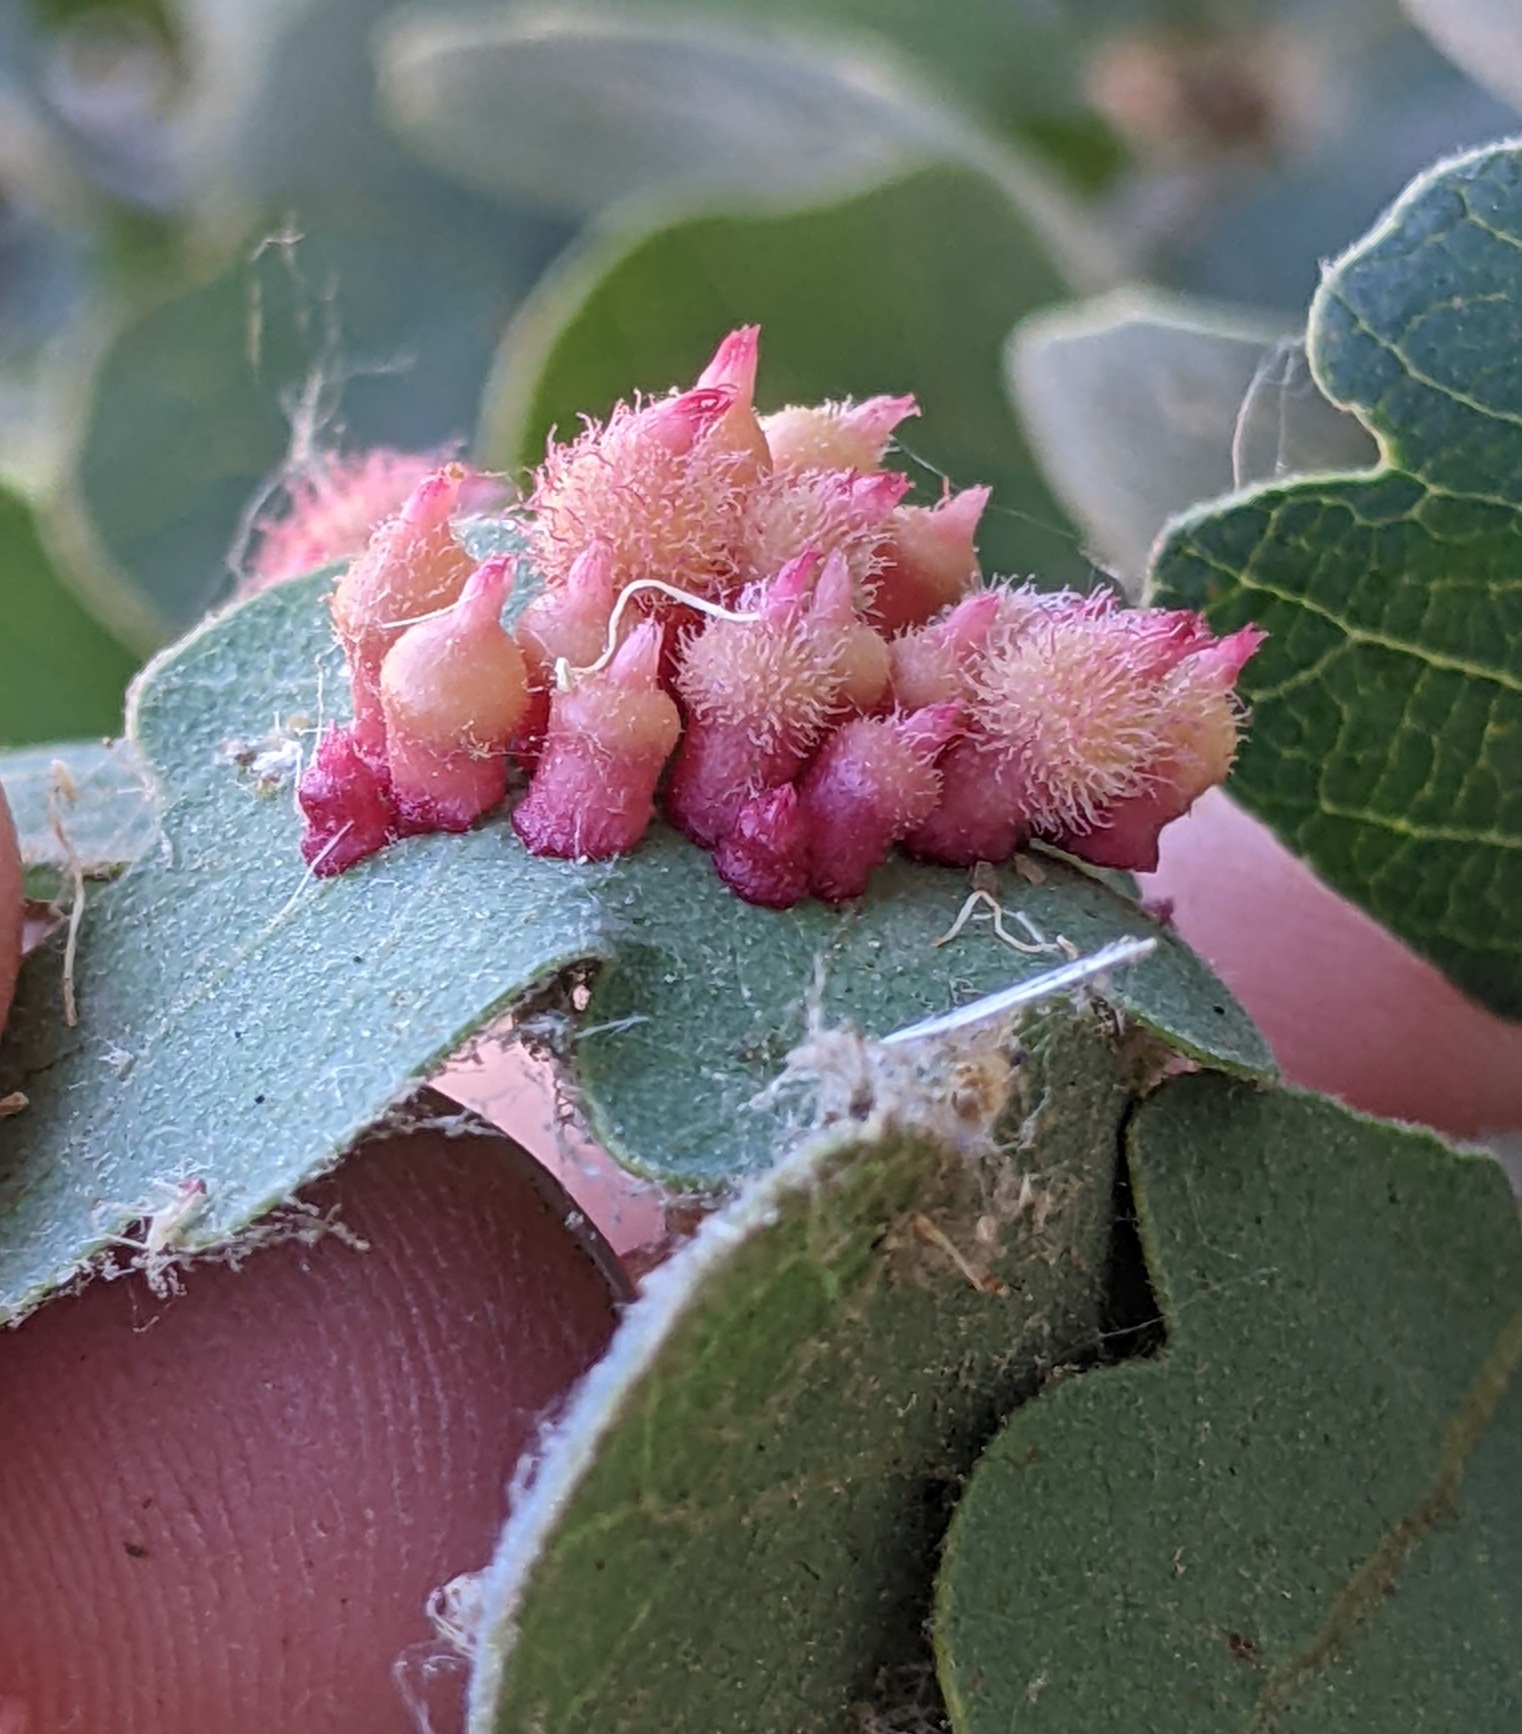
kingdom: Animalia
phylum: Arthropoda
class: Insecta
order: Hymenoptera
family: Cynipidae
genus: Andricus
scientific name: Andricus
